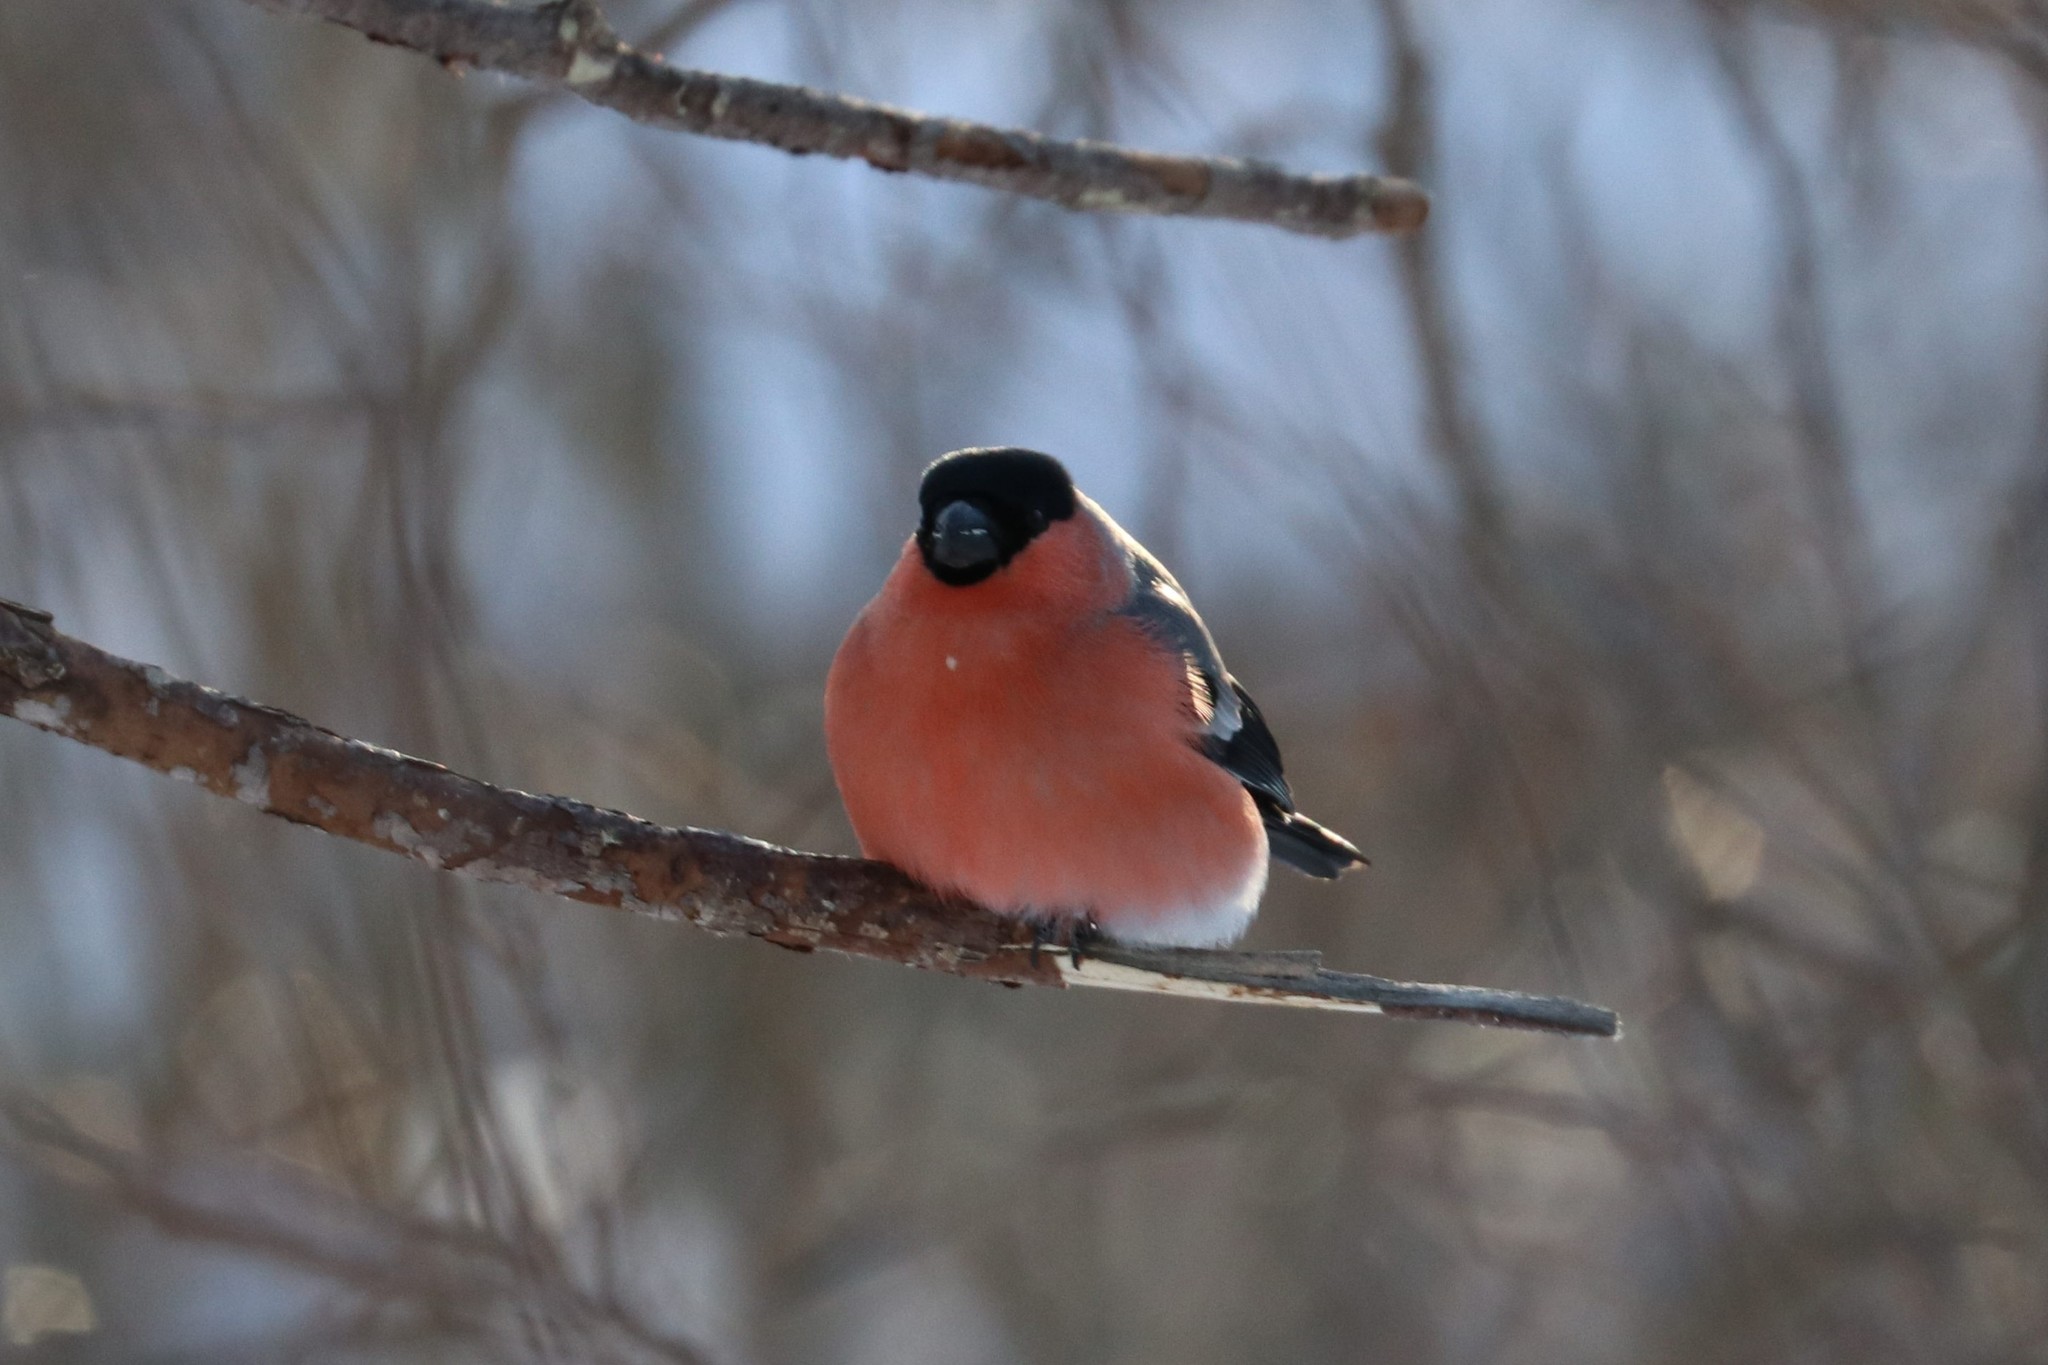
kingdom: Animalia
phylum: Chordata
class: Aves
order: Passeriformes
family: Fringillidae
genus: Pyrrhula
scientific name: Pyrrhula pyrrhula
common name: Eurasian bullfinch
